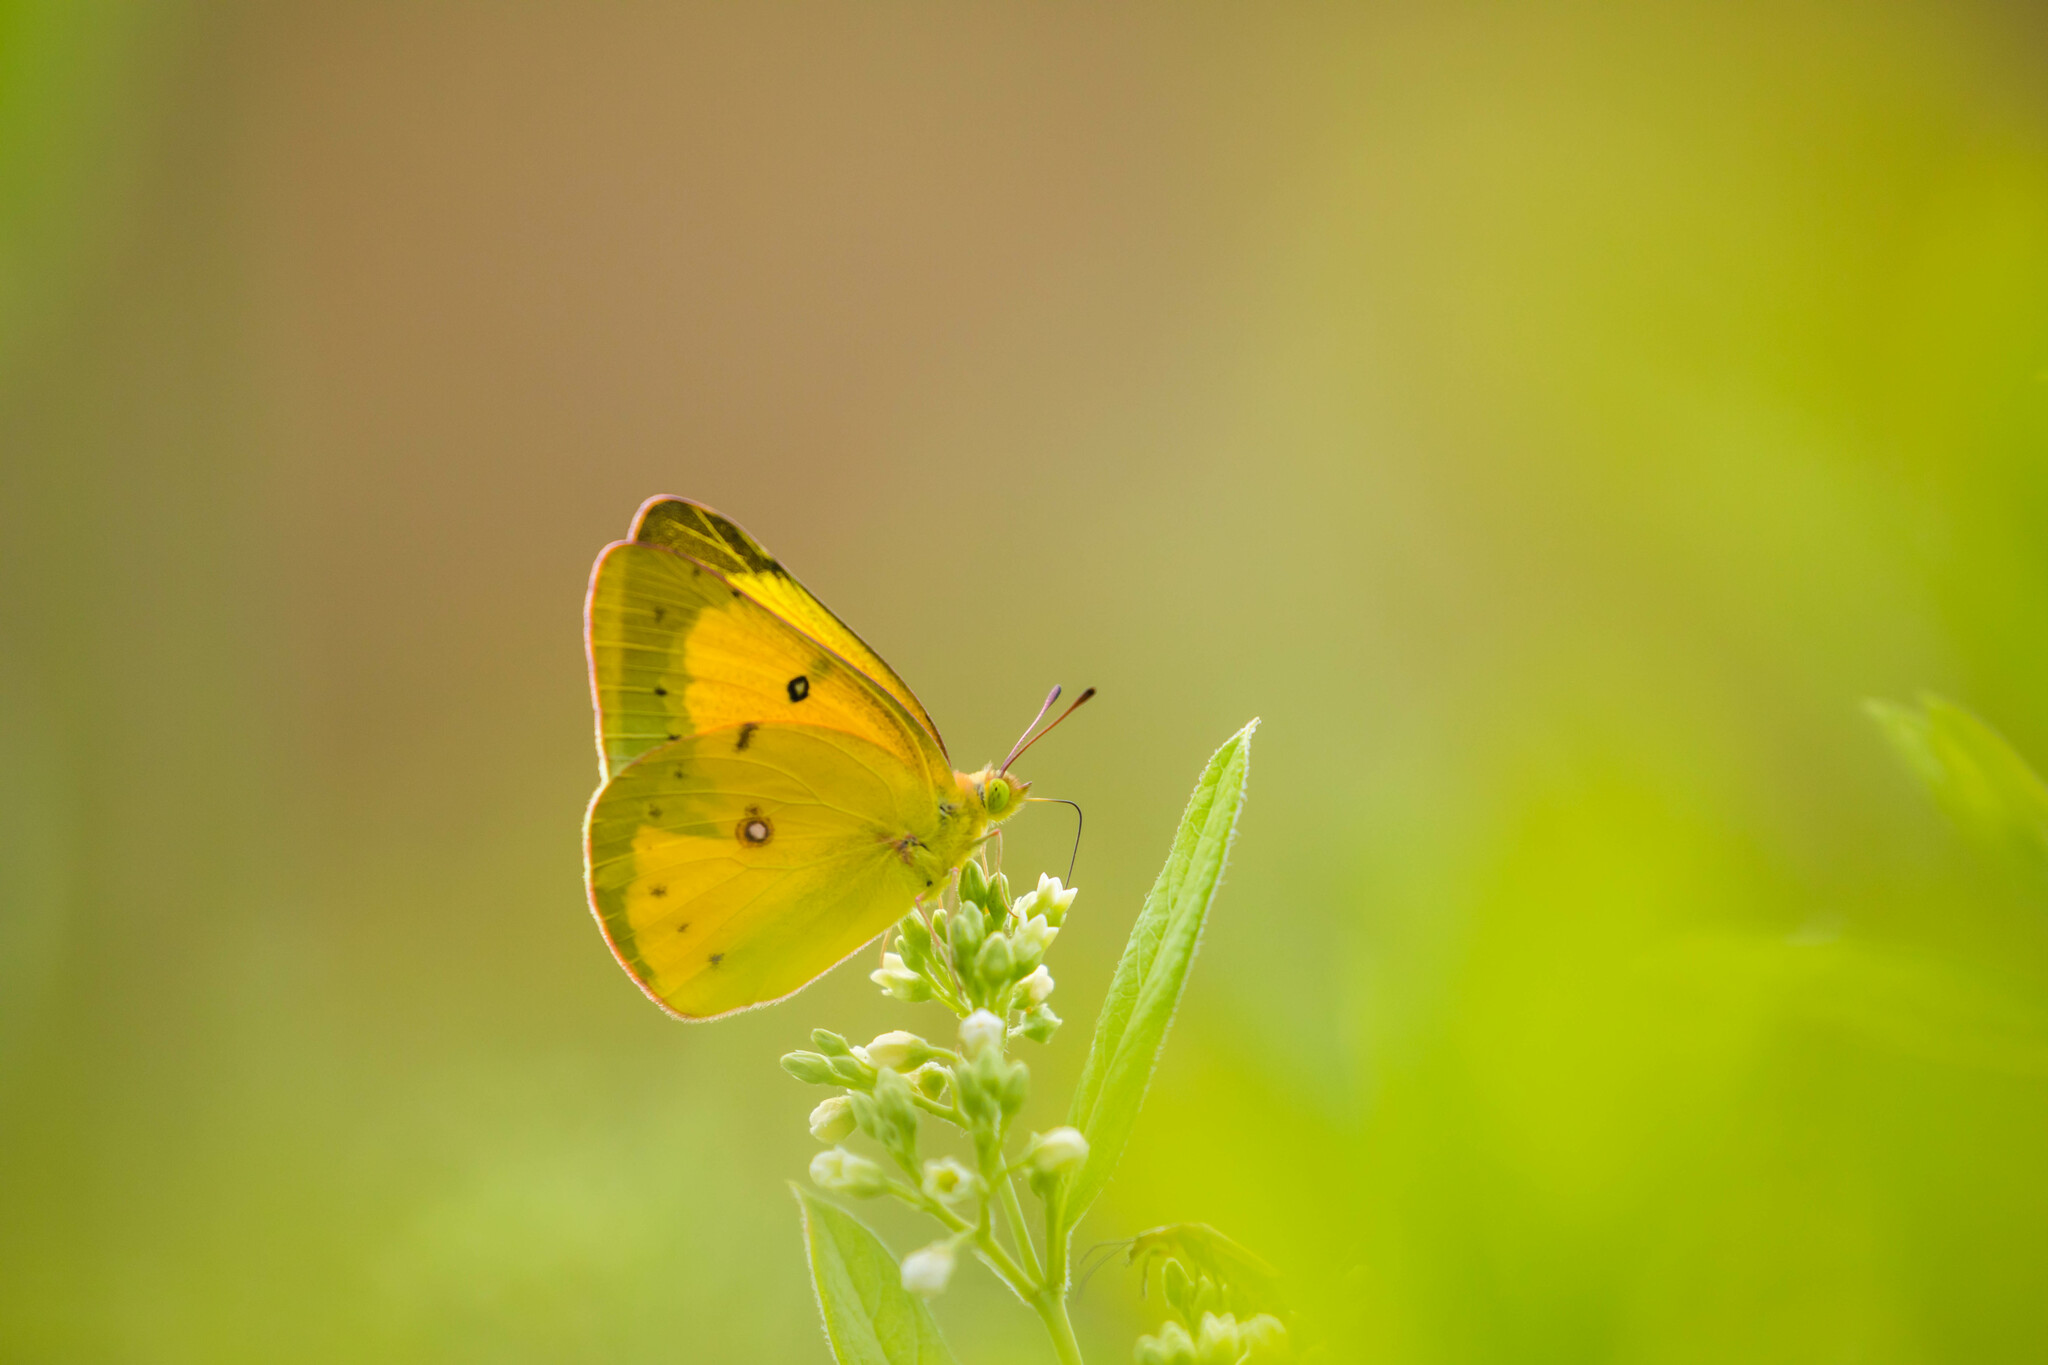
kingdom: Animalia
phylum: Arthropoda
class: Insecta
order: Lepidoptera
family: Pieridae
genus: Colias
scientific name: Colias eurytheme
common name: Alfalfa butterfly
